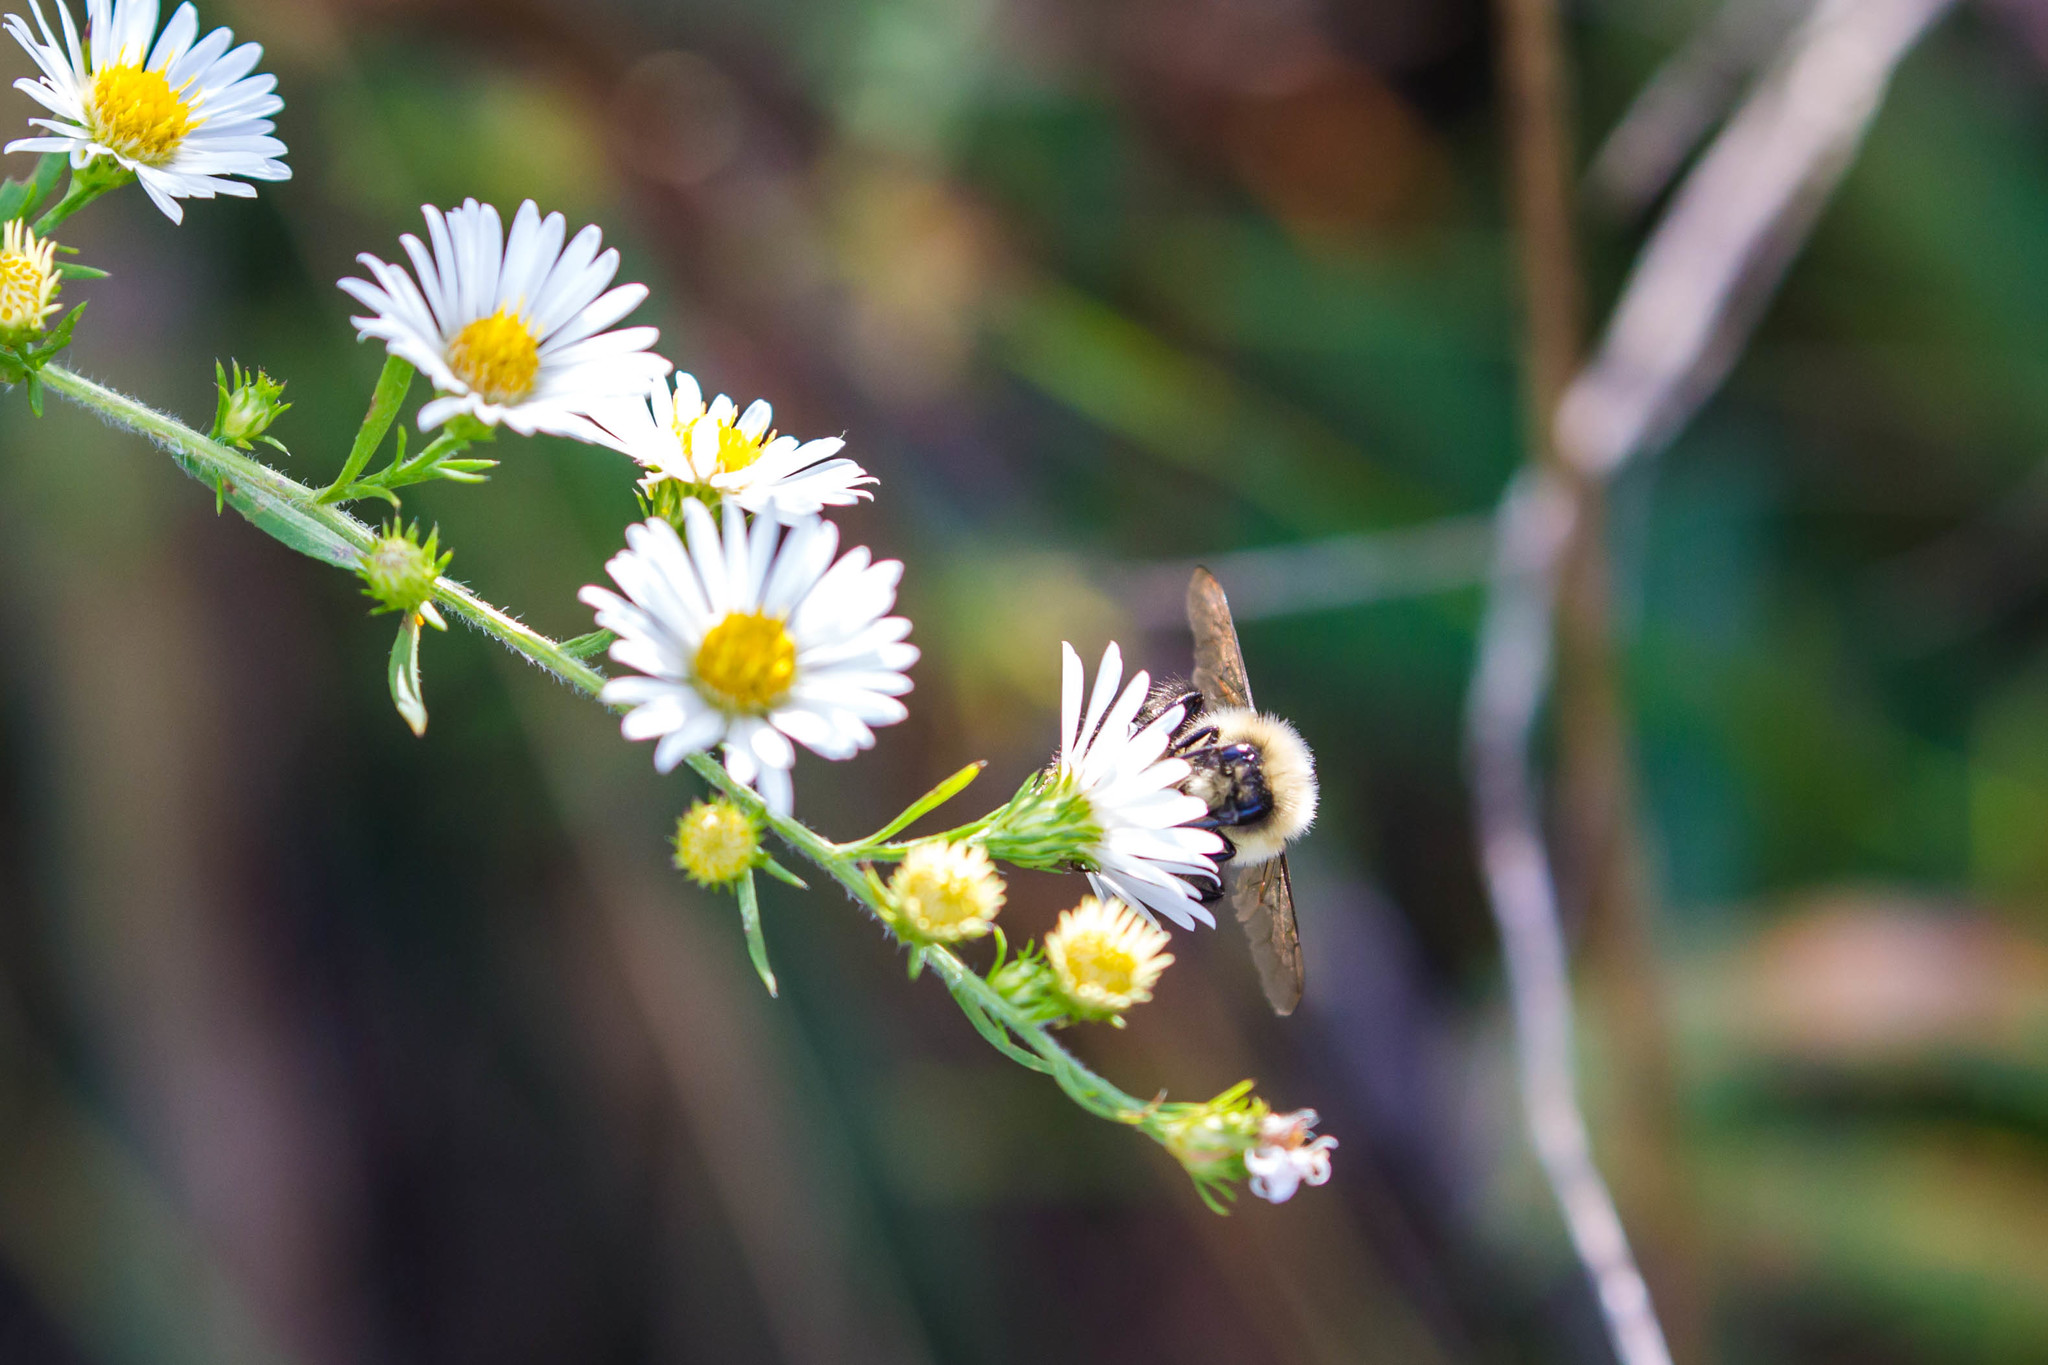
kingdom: Animalia
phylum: Arthropoda
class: Insecta
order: Hymenoptera
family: Apidae
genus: Bombus
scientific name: Bombus impatiens
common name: Common eastern bumble bee
